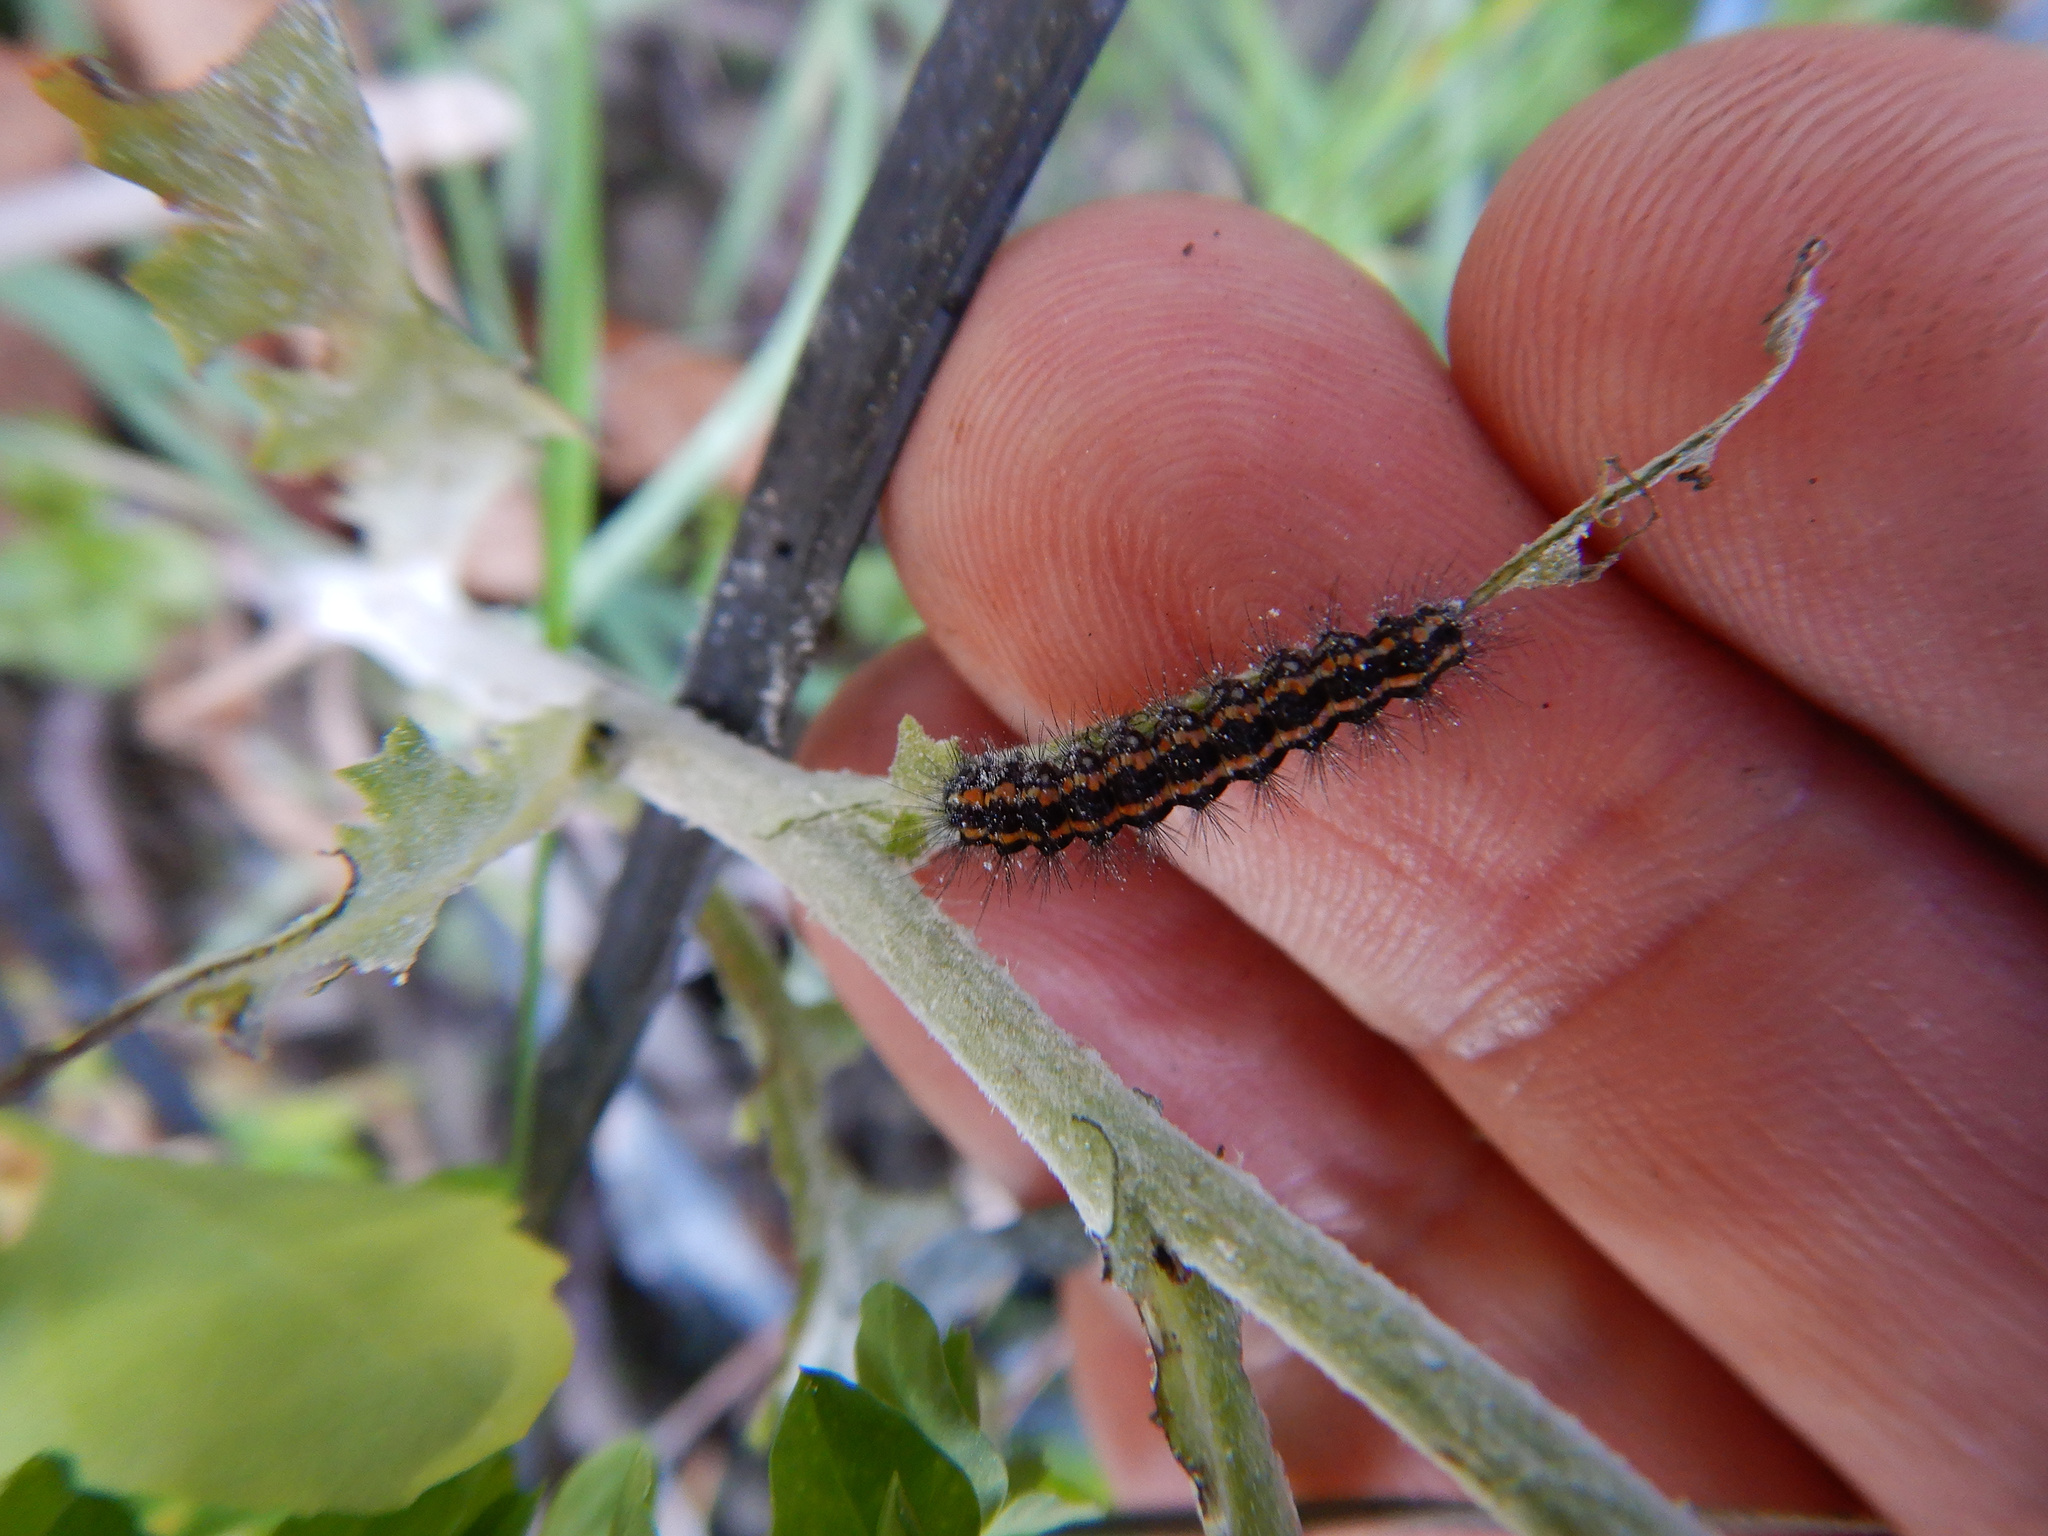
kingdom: Animalia
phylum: Arthropoda
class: Insecta
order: Lepidoptera
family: Erebidae
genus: Nyctemera
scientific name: Nyctemera annulatum
